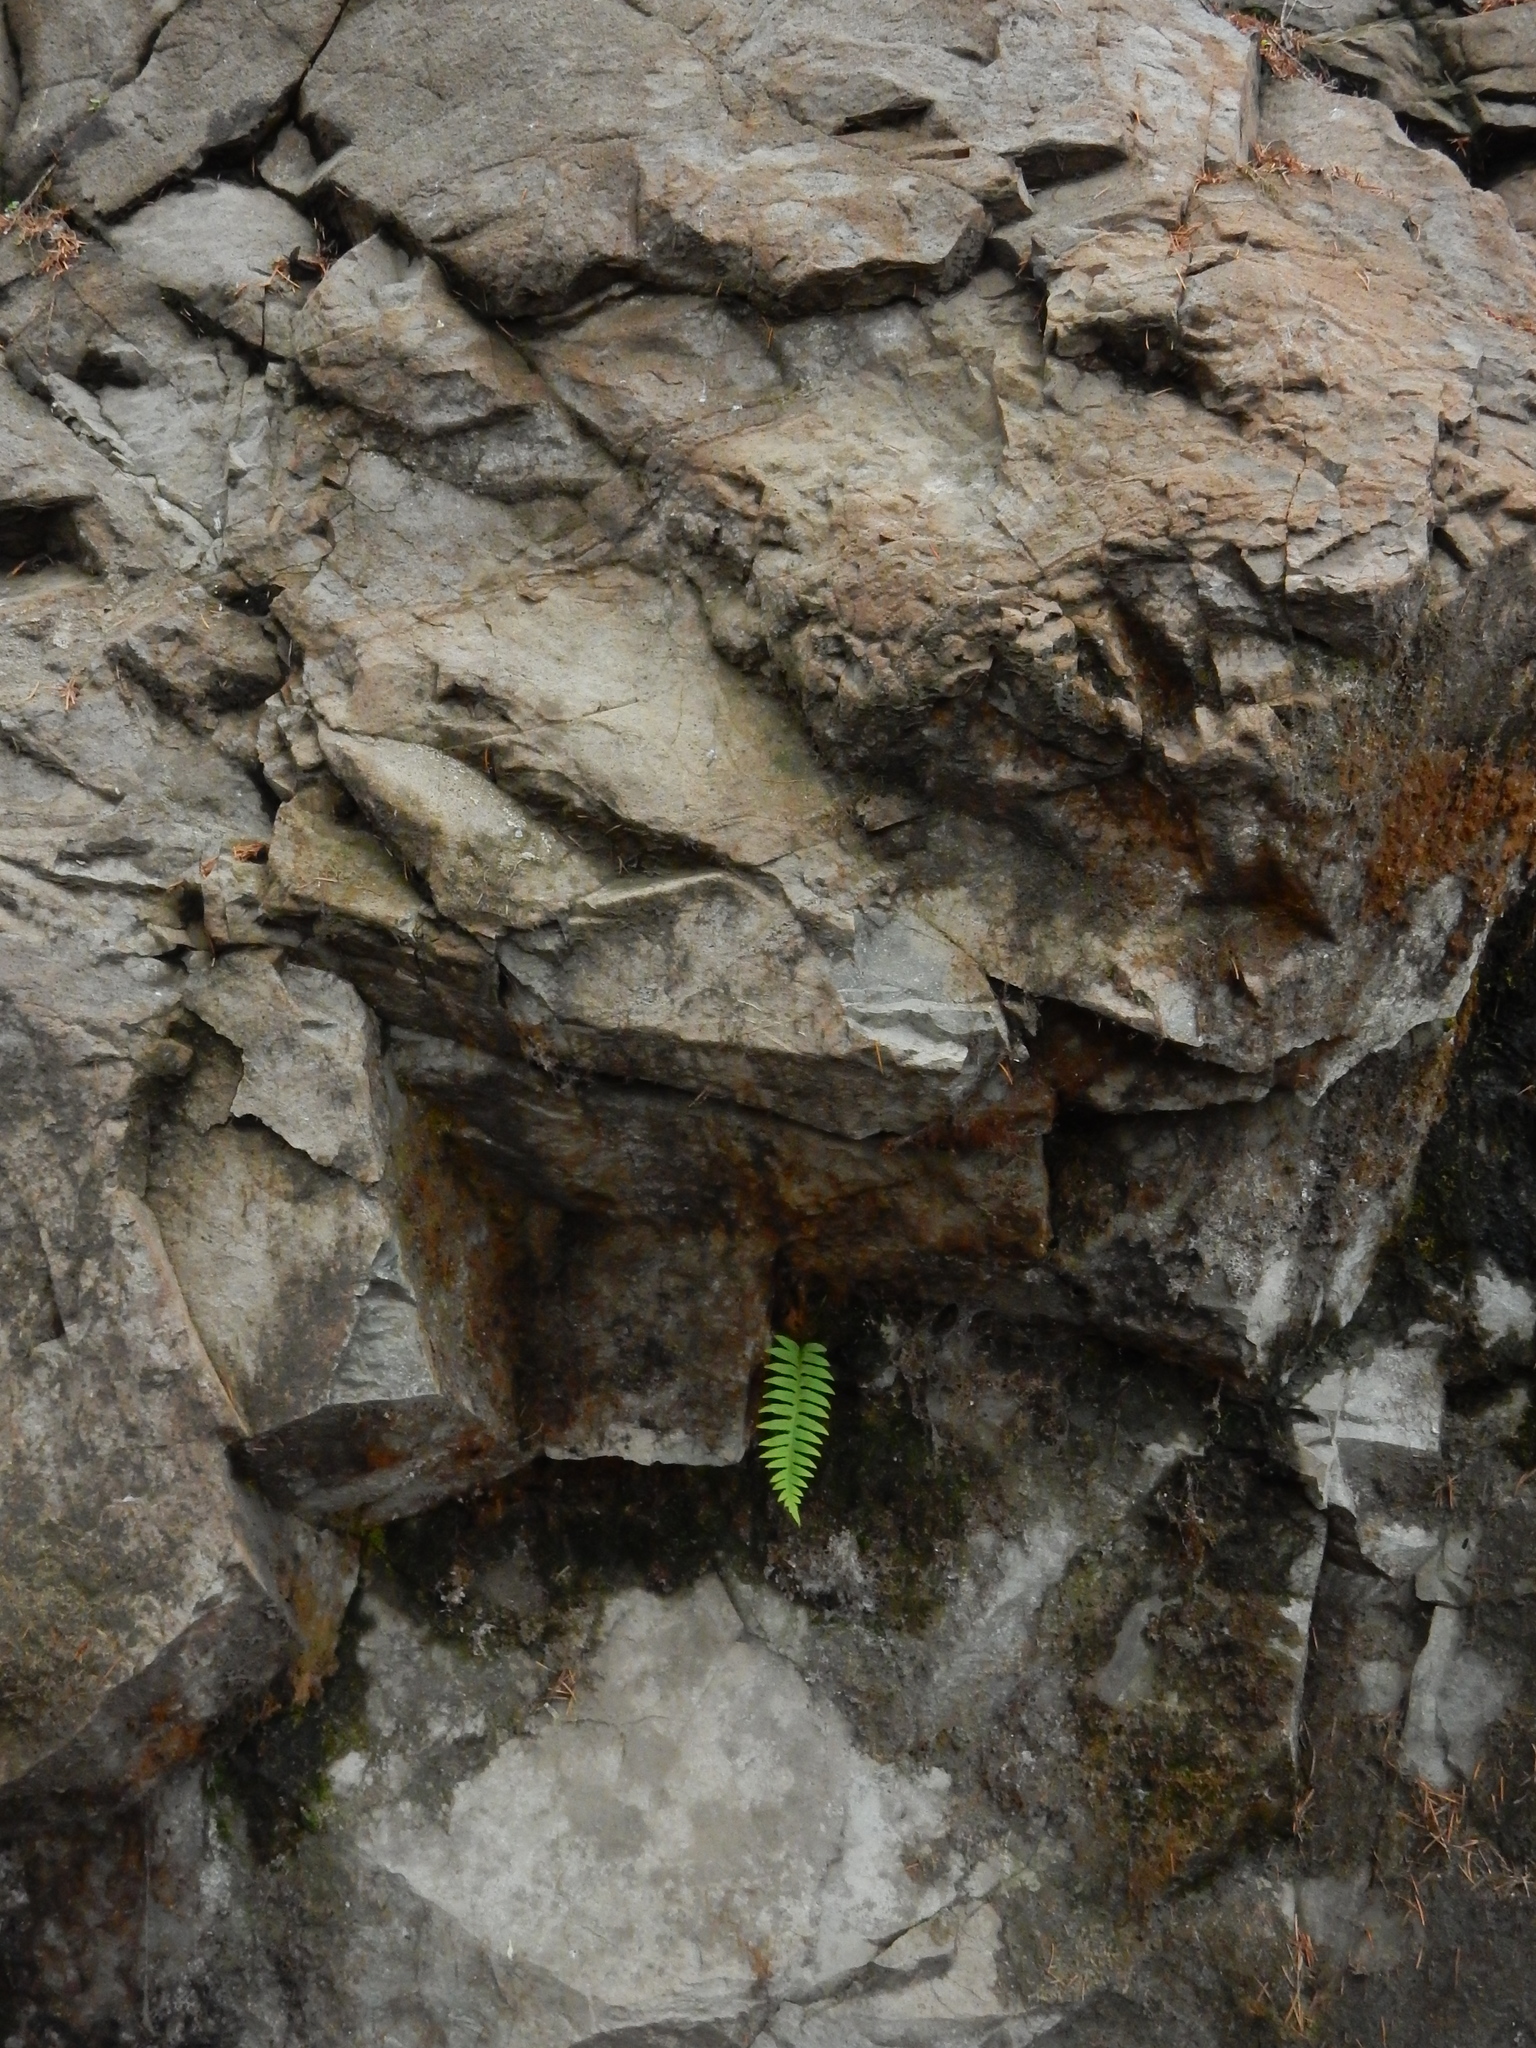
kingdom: Plantae
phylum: Tracheophyta
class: Polypodiopsida
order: Polypodiales
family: Polypodiaceae
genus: Polypodium
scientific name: Polypodium glycyrrhiza
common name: Licorice fern
